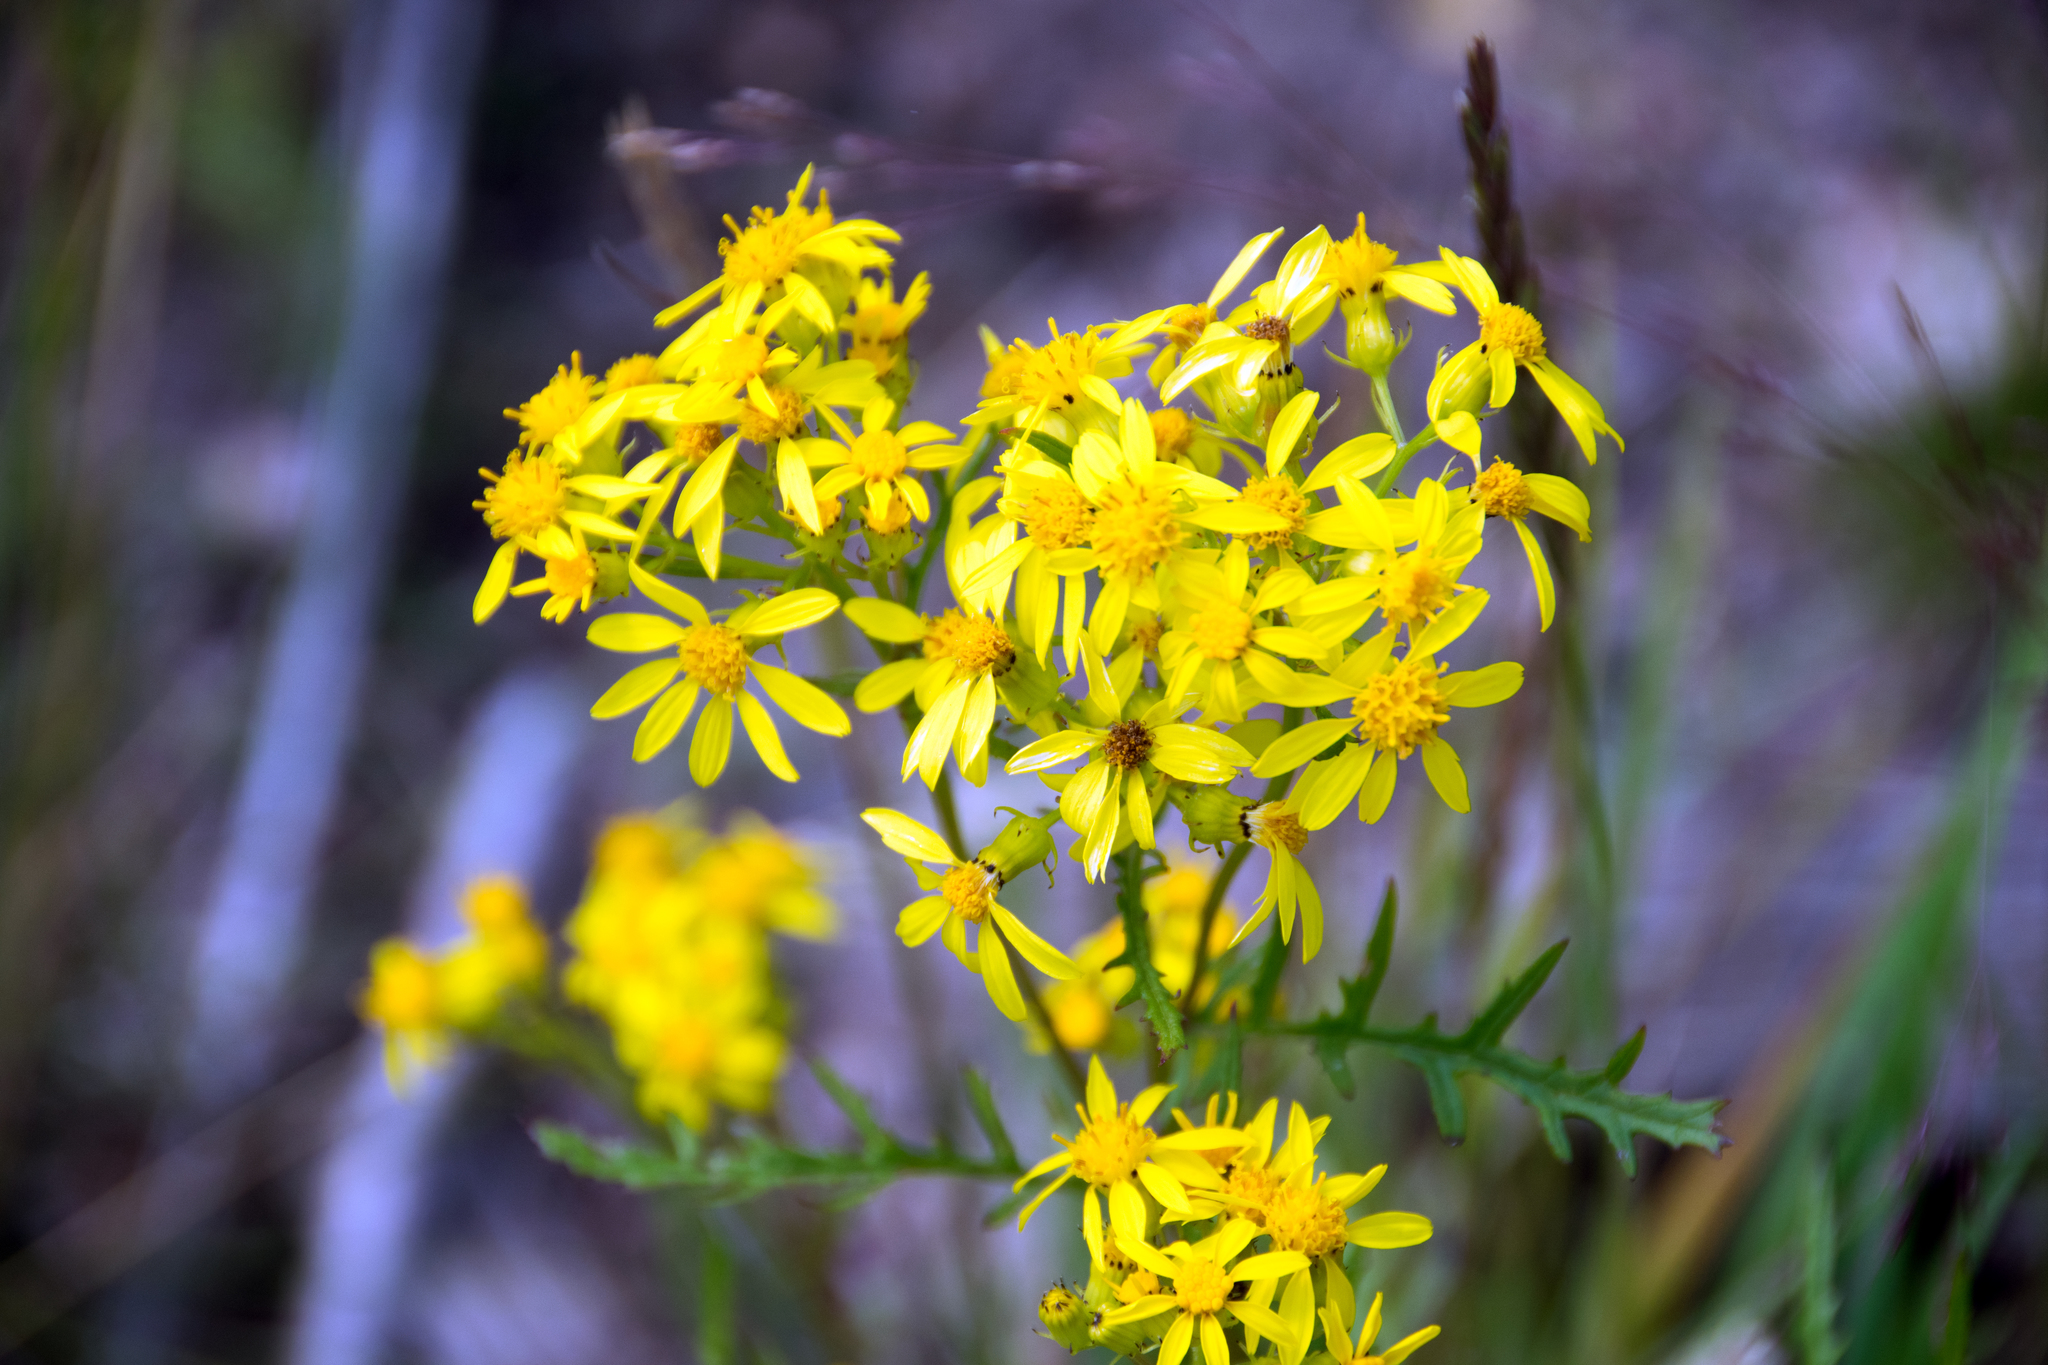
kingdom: Plantae
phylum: Tracheophyta
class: Magnoliopsida
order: Asterales
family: Asteraceae
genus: Senecio
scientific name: Senecio eremophilus
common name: Desert ragwort
